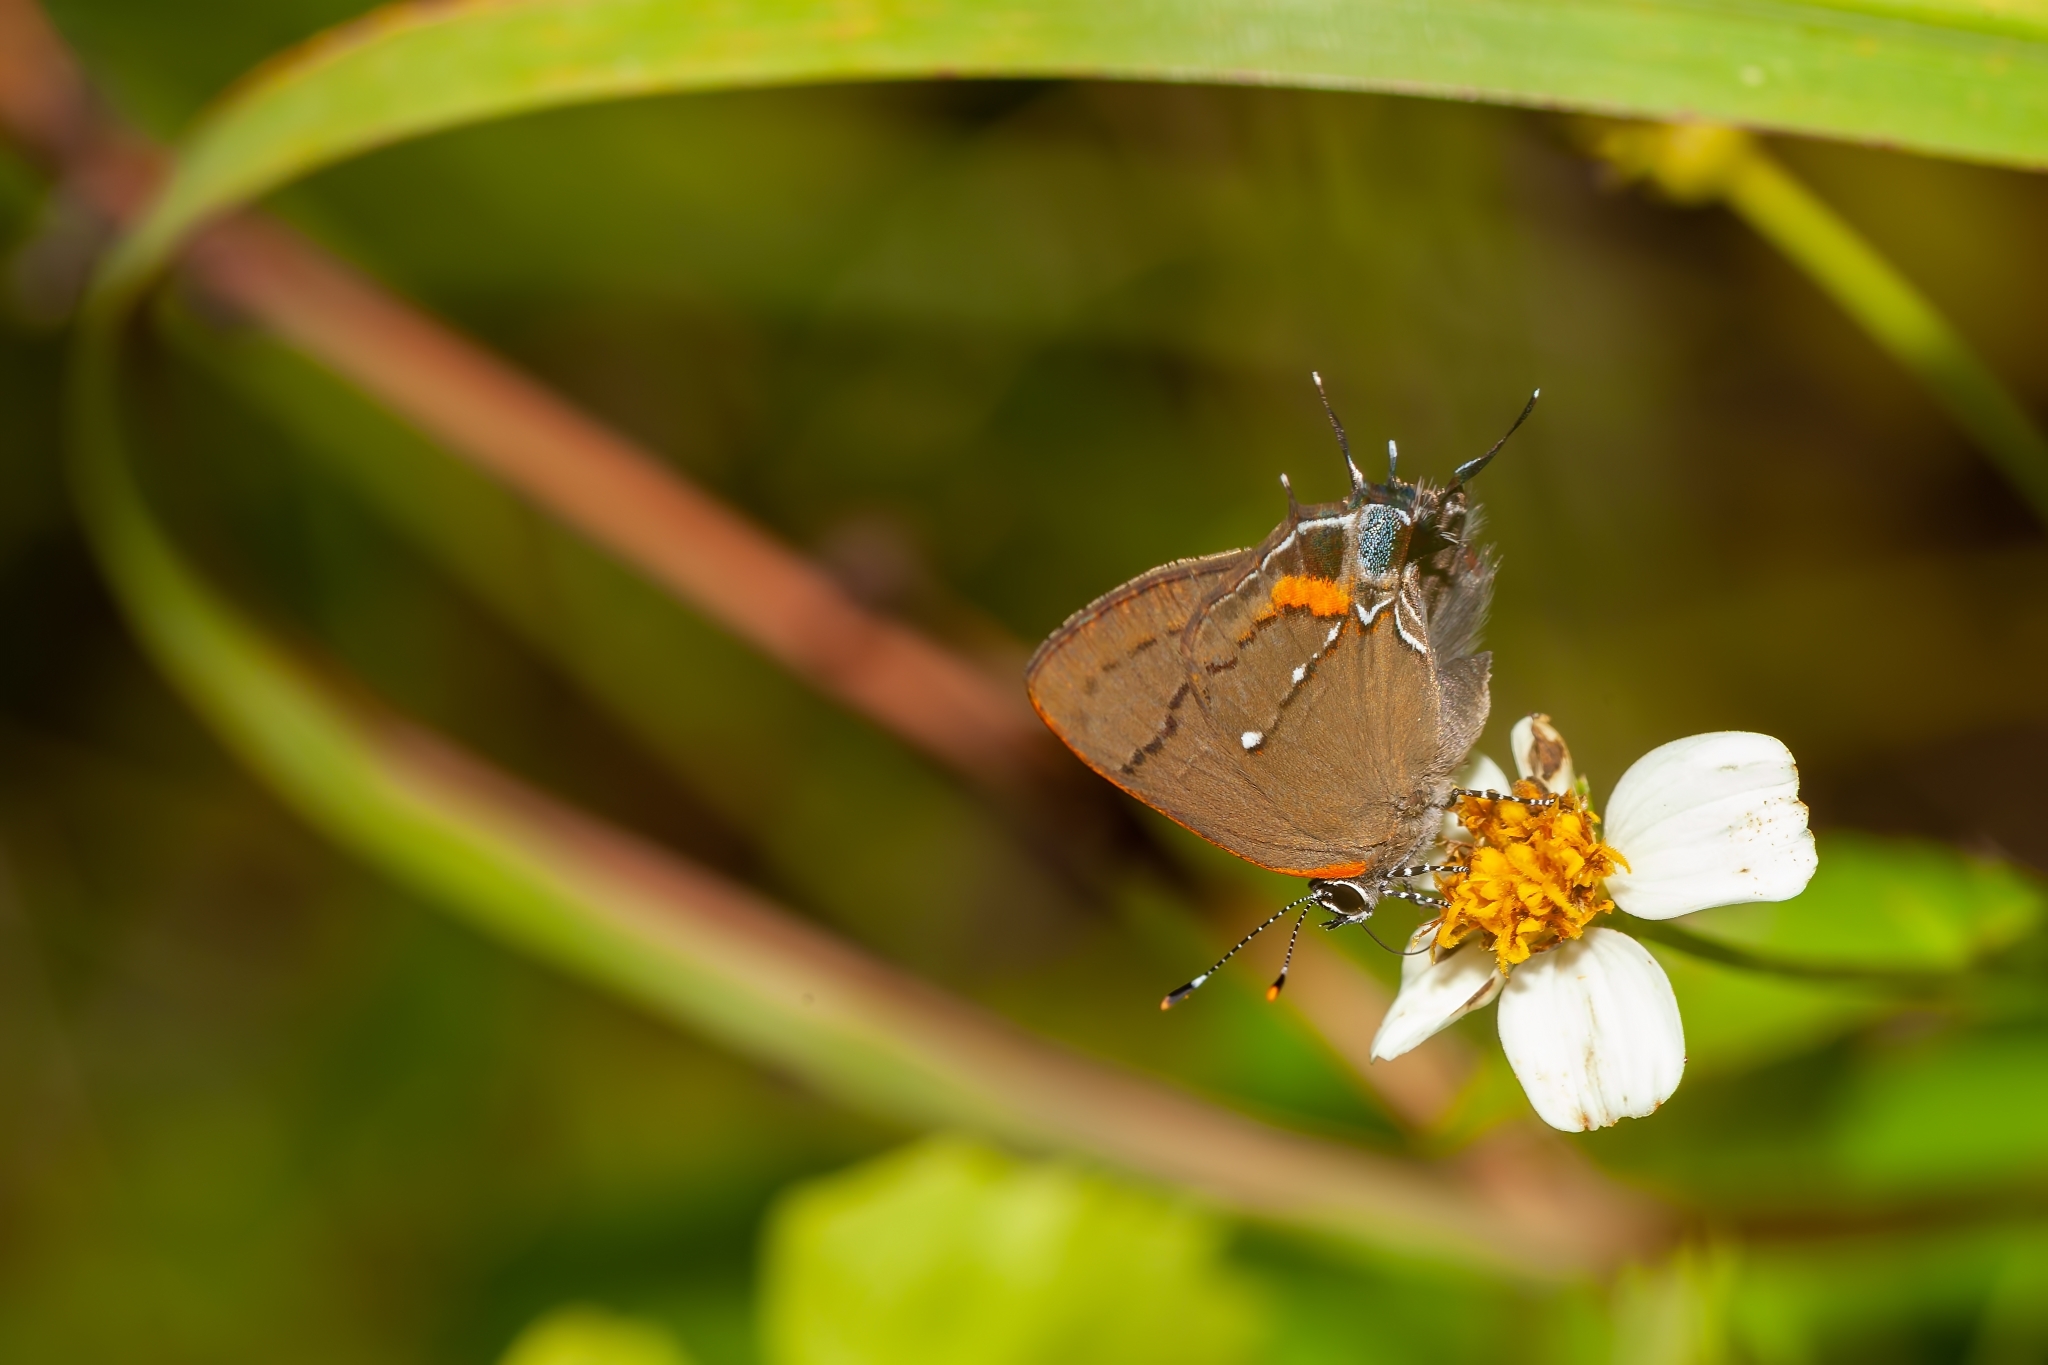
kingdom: Animalia
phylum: Arthropoda
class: Insecta
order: Lepidoptera
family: Lycaenidae
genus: Thecla
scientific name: Thecla angelia
